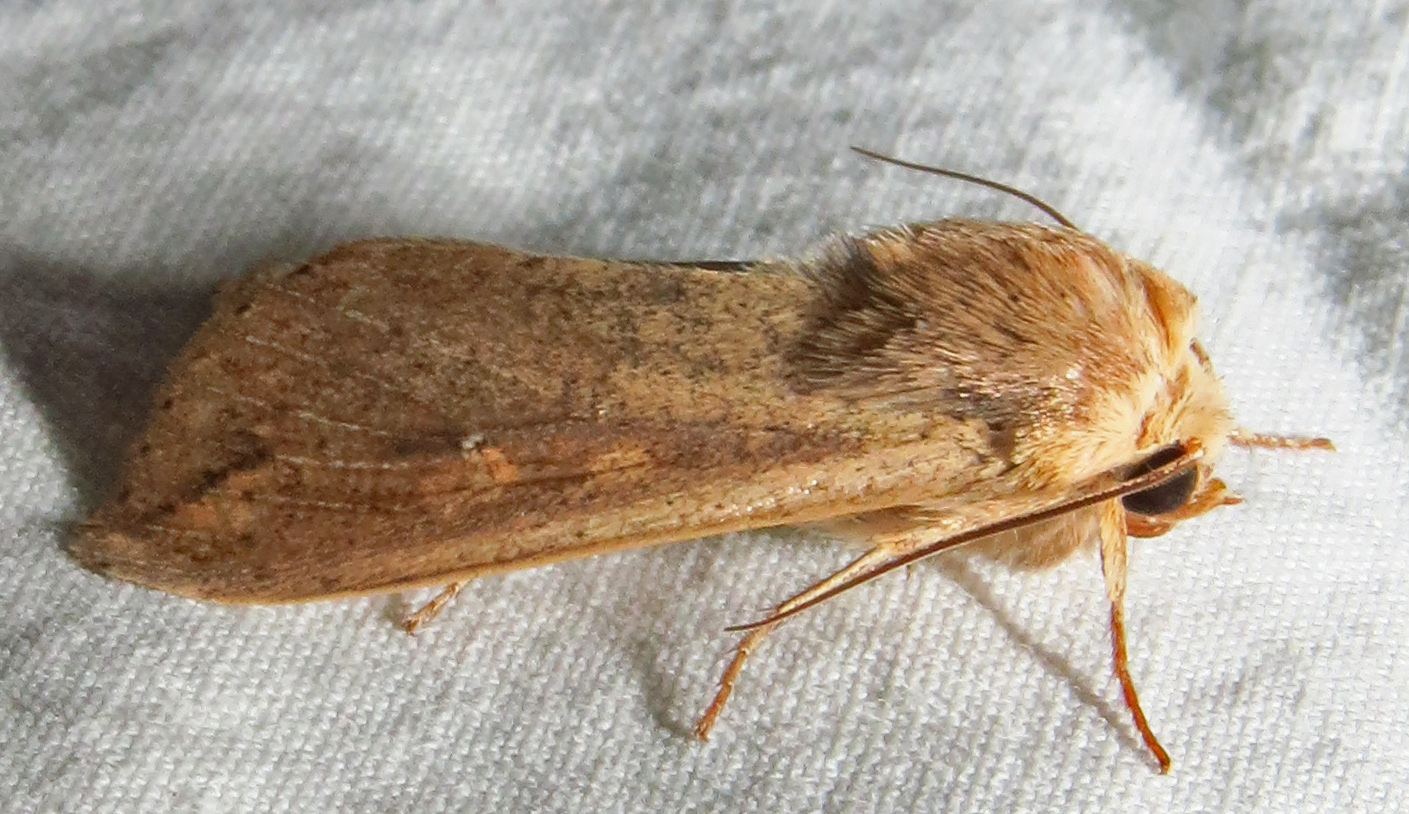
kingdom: Animalia
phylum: Arthropoda
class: Insecta
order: Lepidoptera
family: Noctuidae
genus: Mythimna
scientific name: Mythimna unipuncta
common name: White-speck
